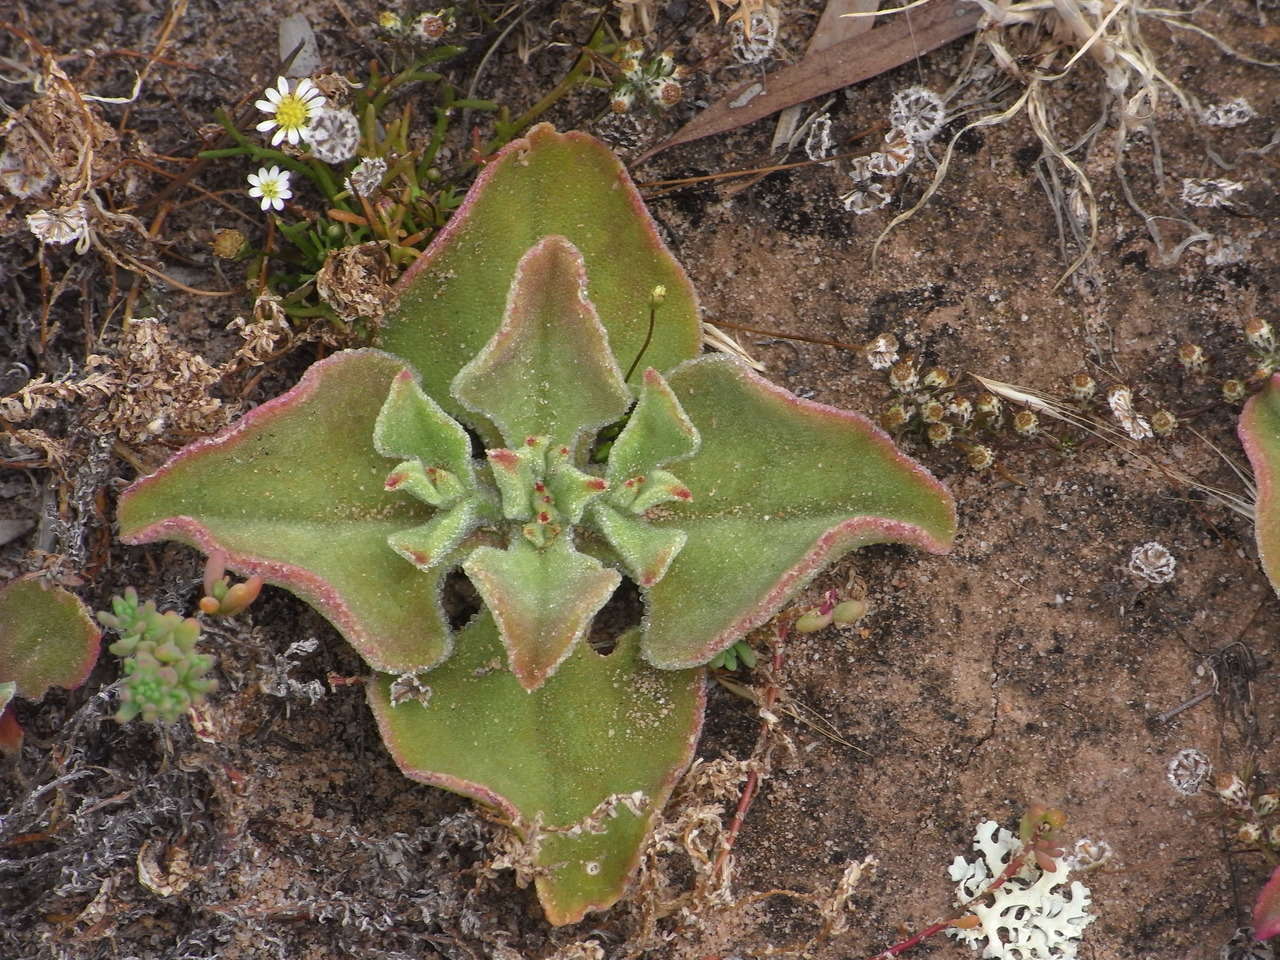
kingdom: Plantae
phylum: Tracheophyta
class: Magnoliopsida
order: Caryophyllales
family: Aizoaceae
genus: Mesembryanthemum
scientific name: Mesembryanthemum crystallinum
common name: Common iceplant
